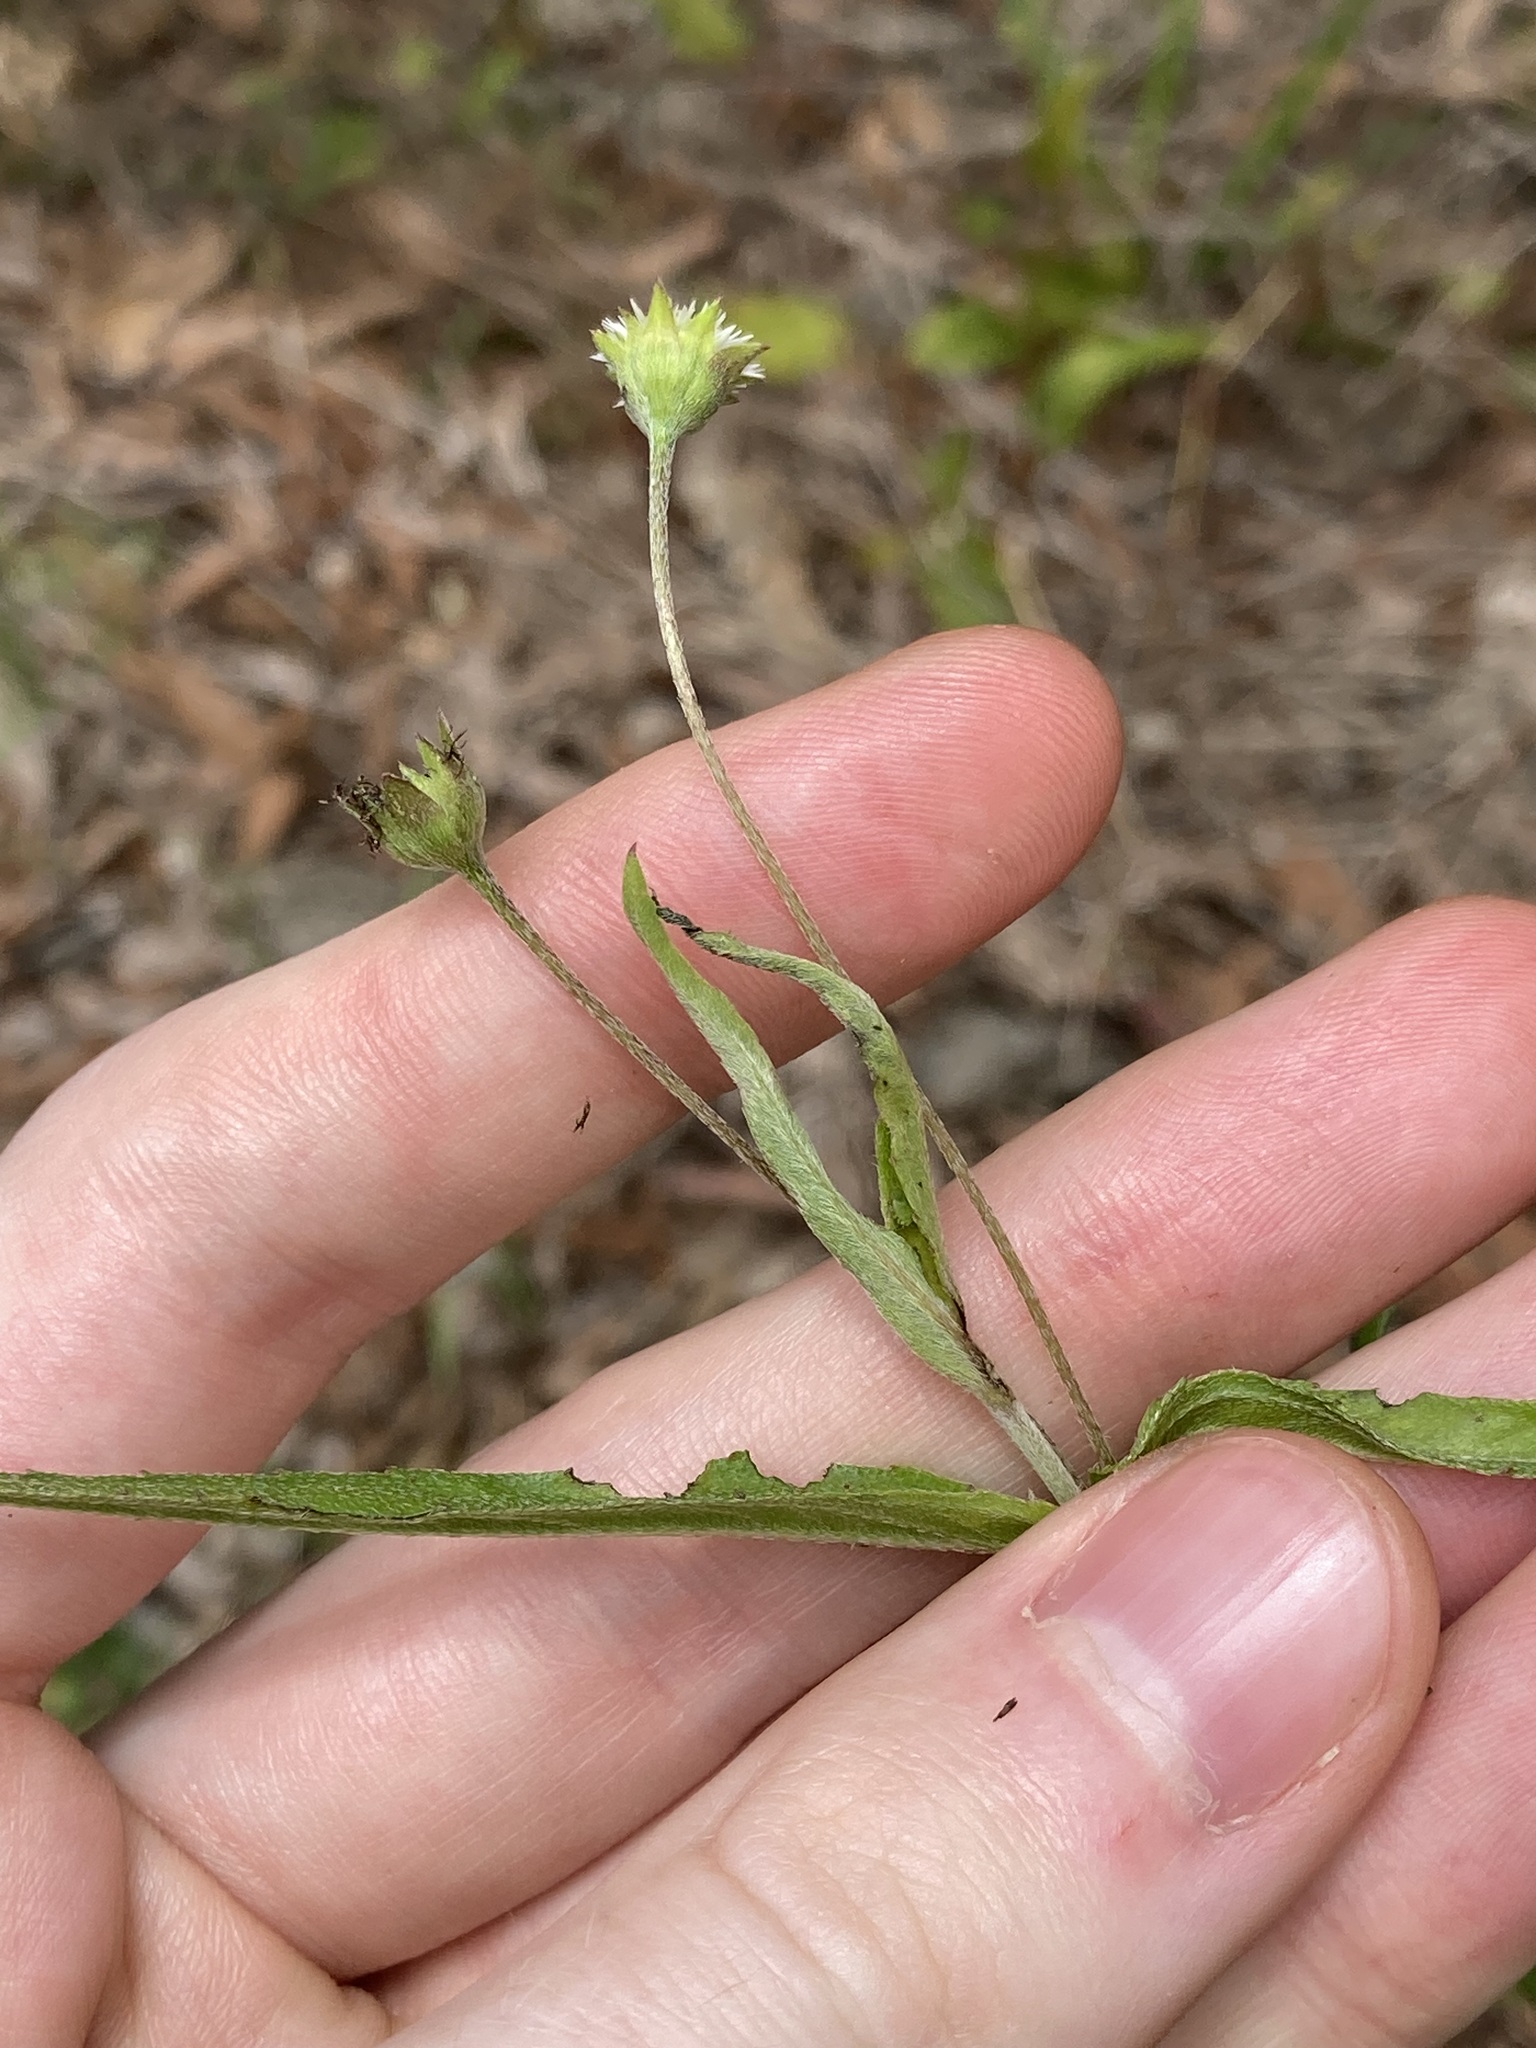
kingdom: Plantae
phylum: Tracheophyta
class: Magnoliopsida
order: Asterales
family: Asteraceae
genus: Eclipta
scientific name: Eclipta prostrata
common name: False daisy
